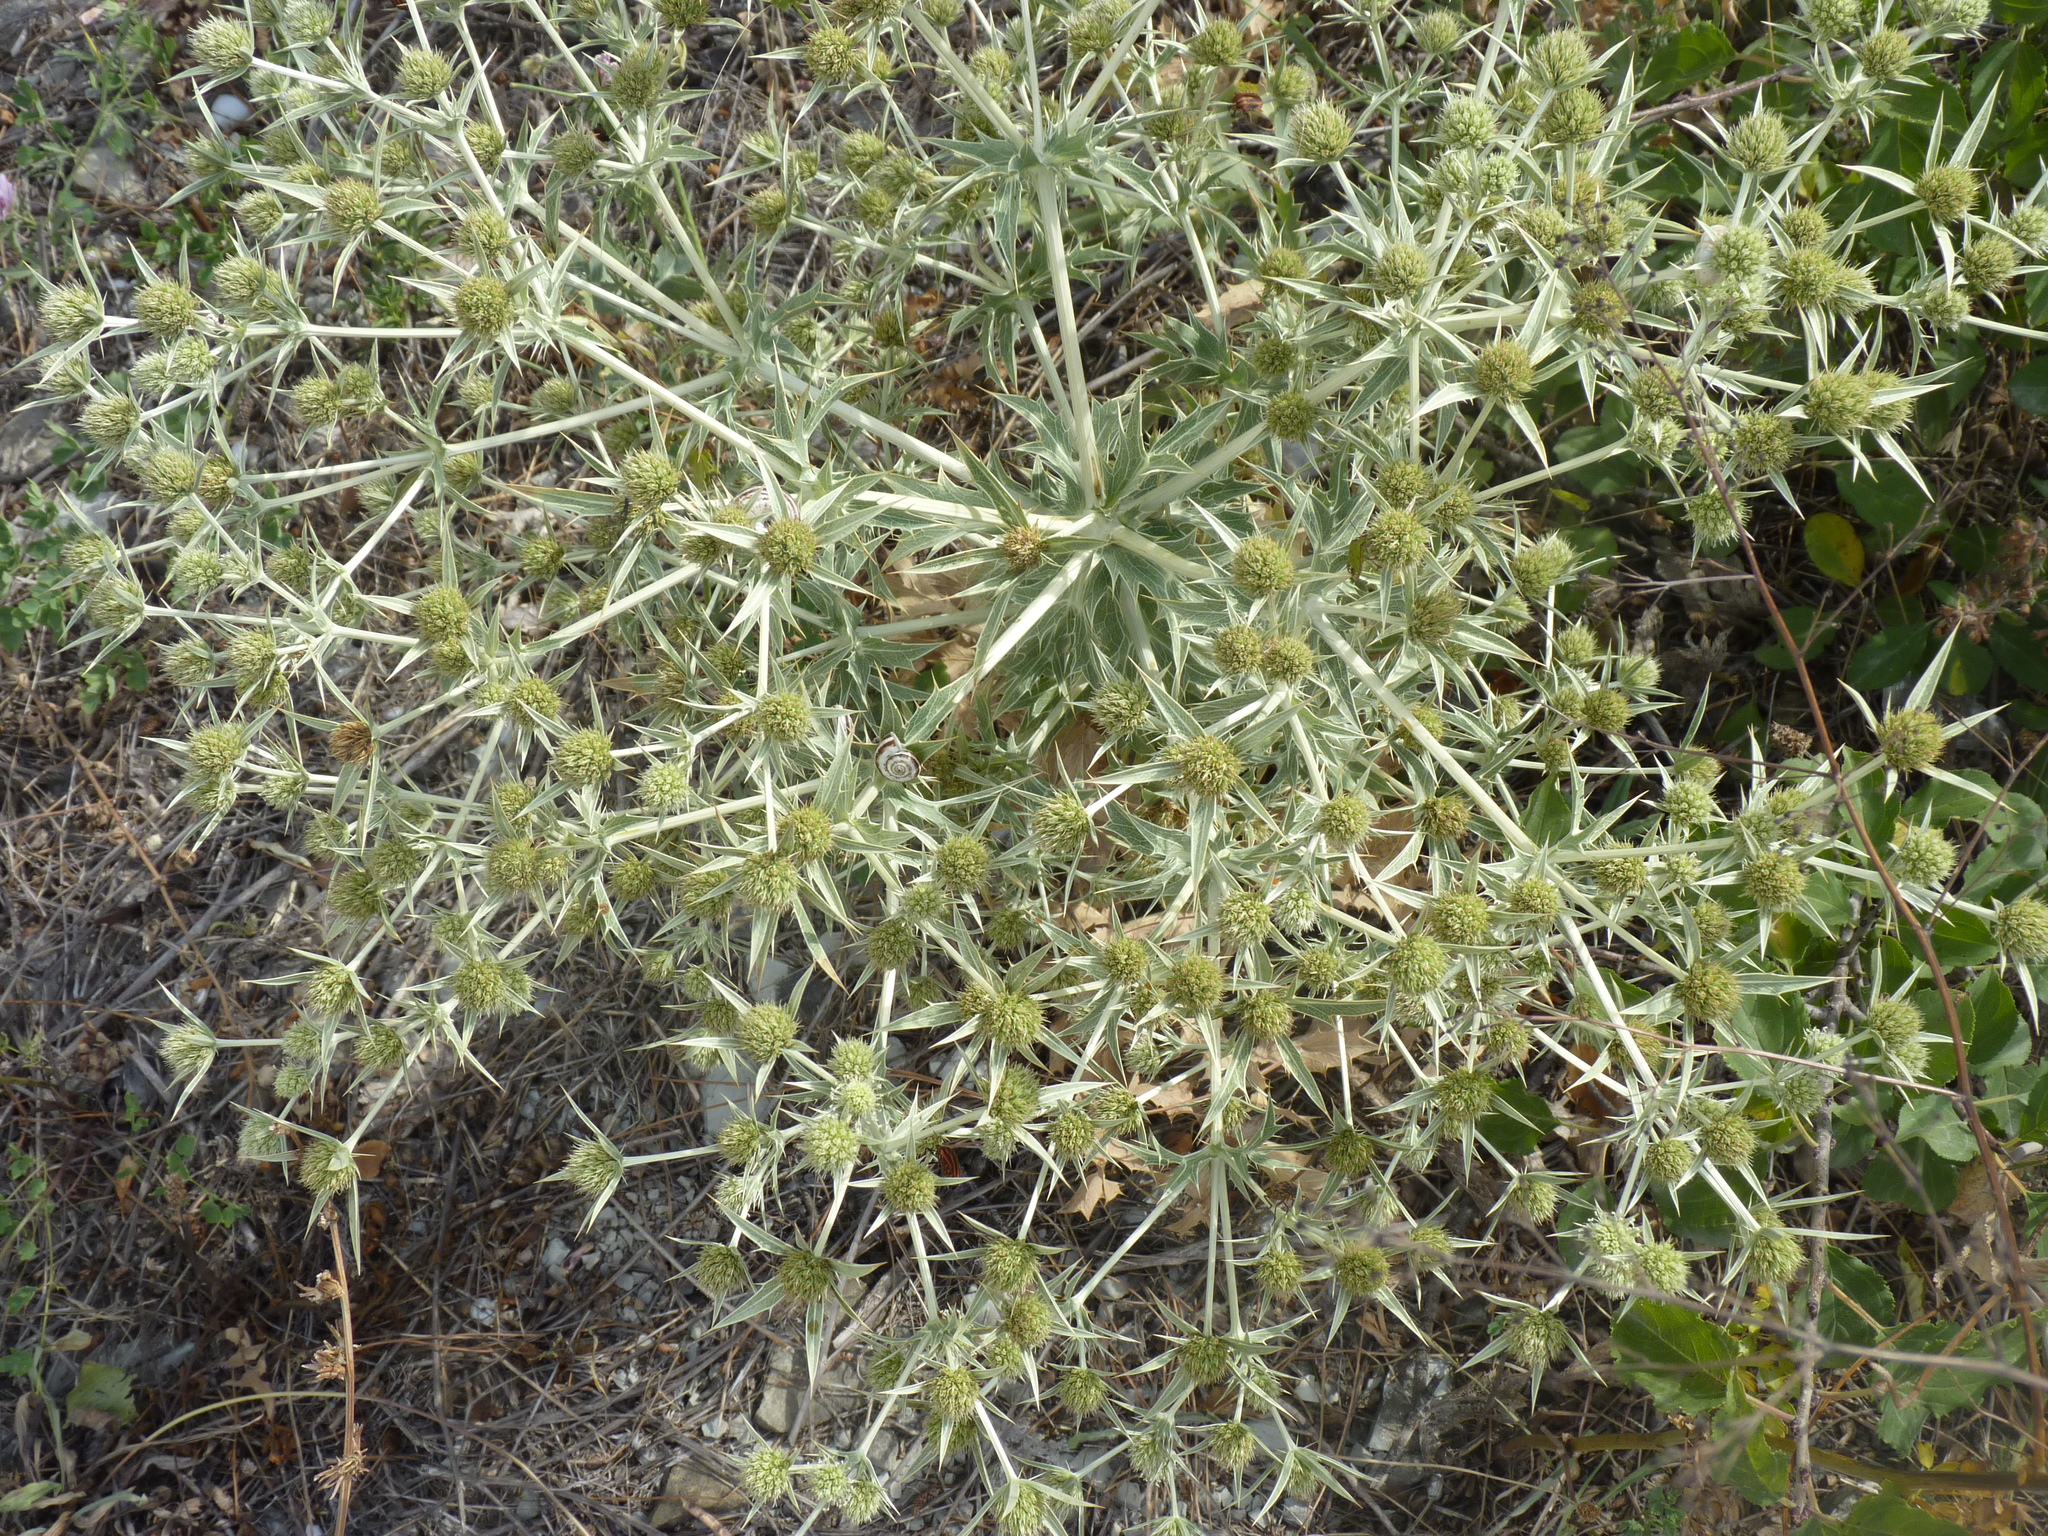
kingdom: Plantae
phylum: Tracheophyta
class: Magnoliopsida
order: Apiales
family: Apiaceae
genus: Eryngium
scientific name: Eryngium campestre
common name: Field eryngo
